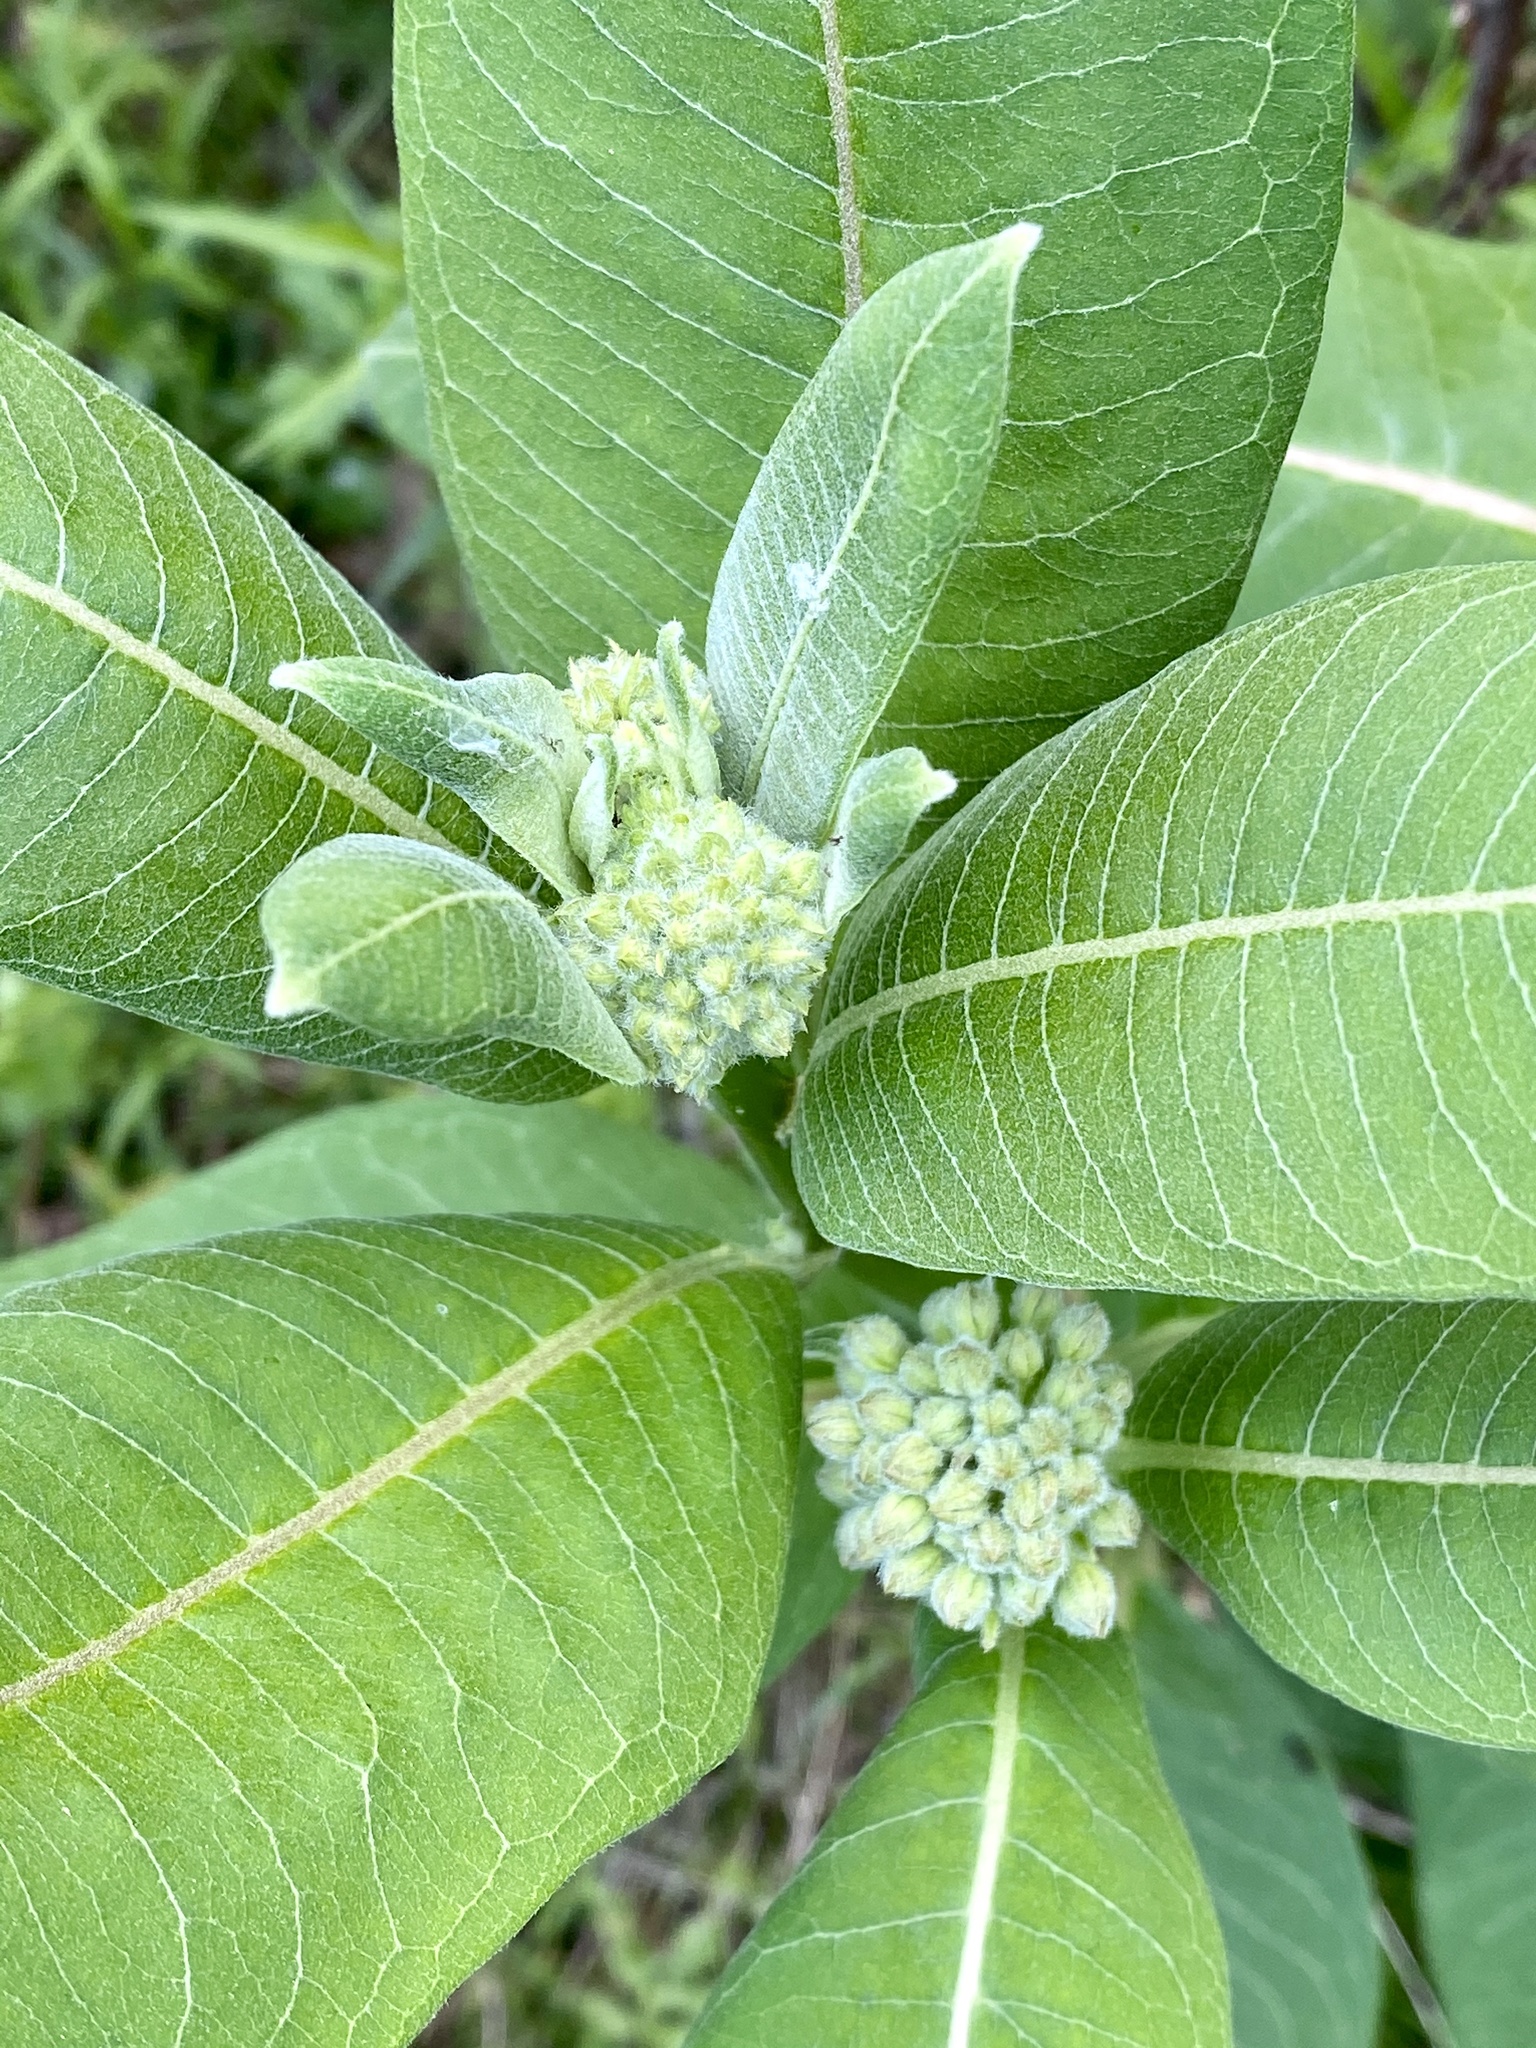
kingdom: Plantae
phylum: Tracheophyta
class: Magnoliopsida
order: Gentianales
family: Apocynaceae
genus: Asclepias
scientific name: Asclepias syriaca
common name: Common milkweed
